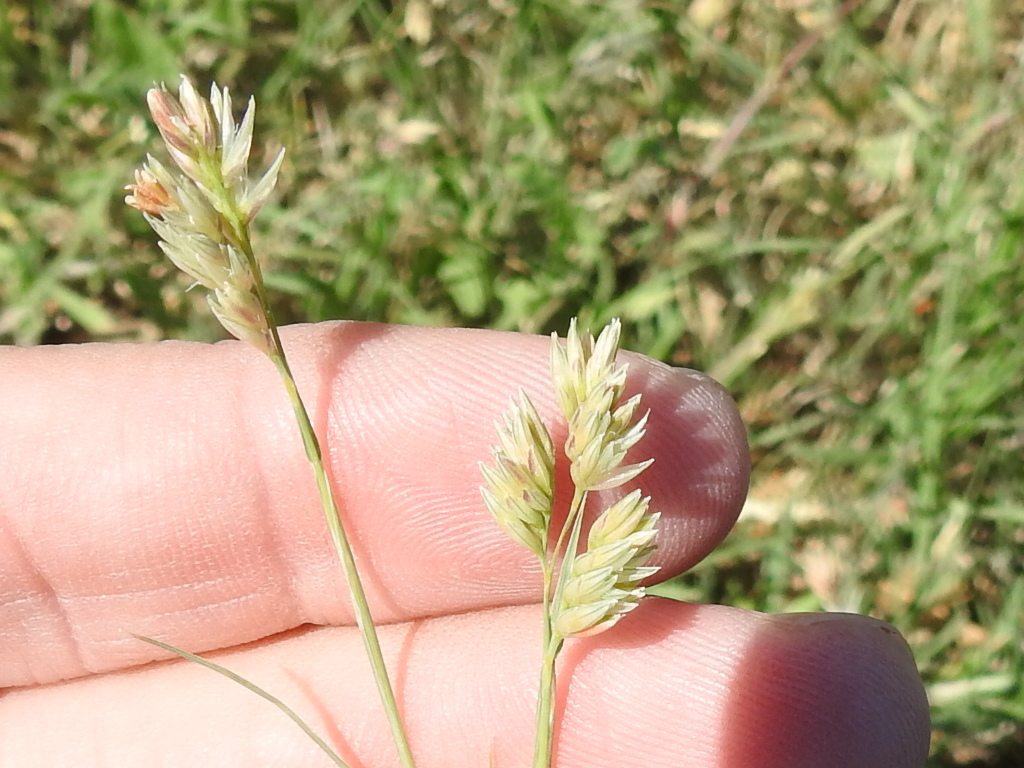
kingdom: Plantae
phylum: Tracheophyta
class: Liliopsida
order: Poales
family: Poaceae
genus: Bouteloua
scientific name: Bouteloua dactyloides
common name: Buffalo grass
